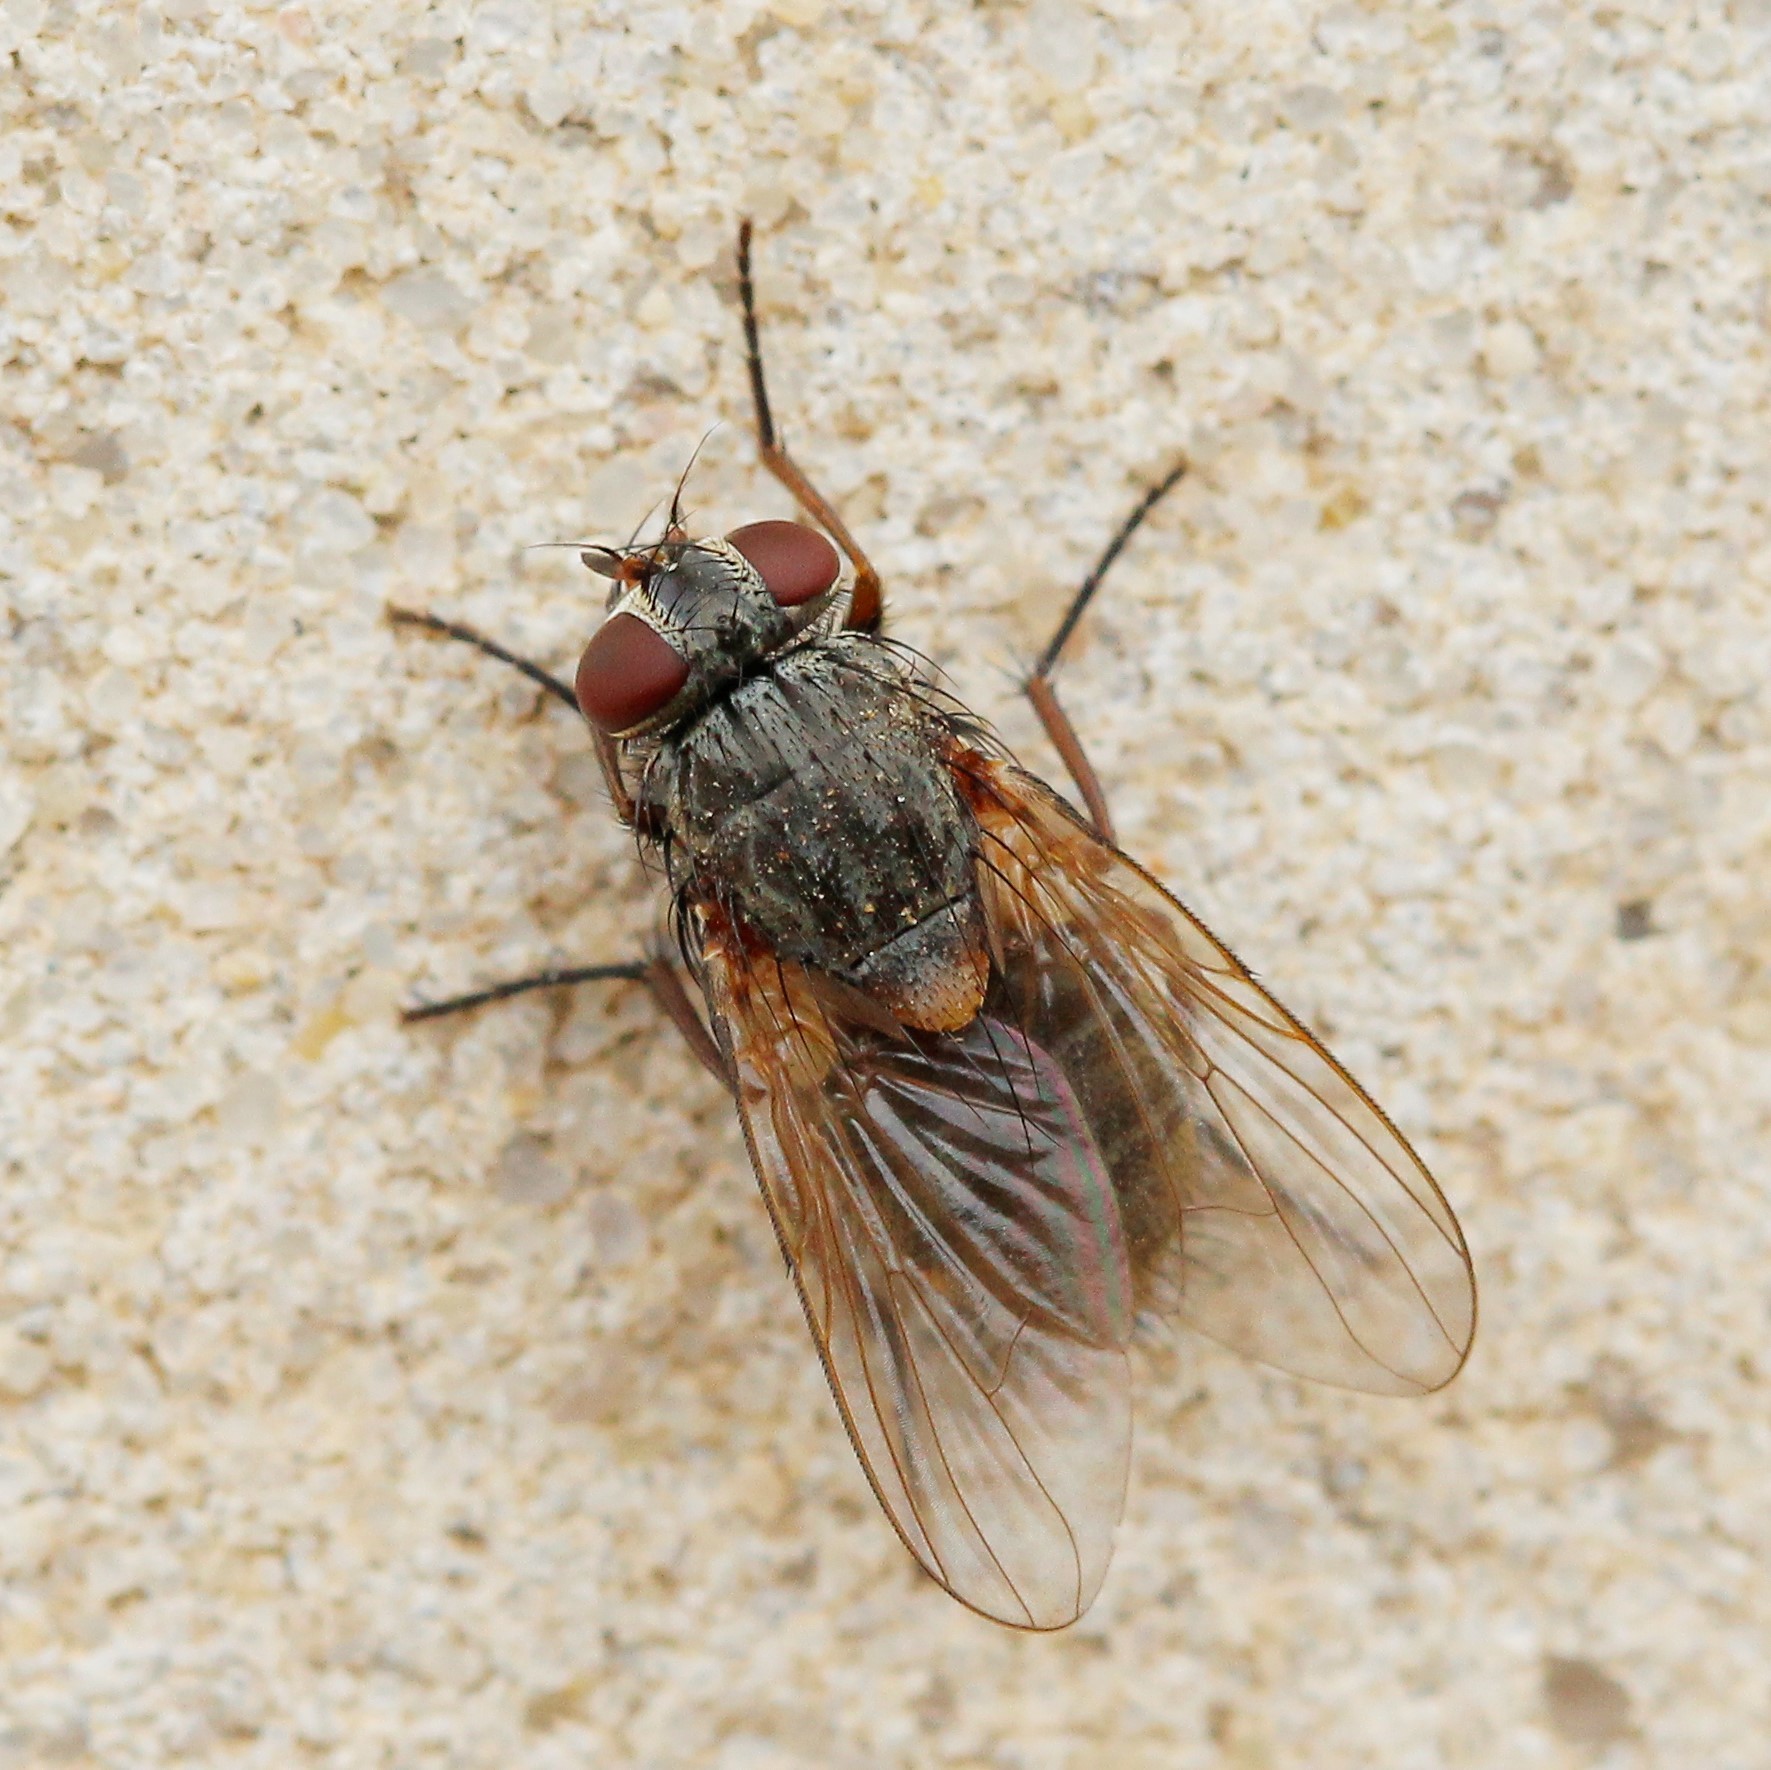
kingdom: Animalia
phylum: Arthropoda
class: Insecta
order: Diptera
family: Muscidae
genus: Muscina
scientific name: Muscina stabulans
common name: False stable fly
